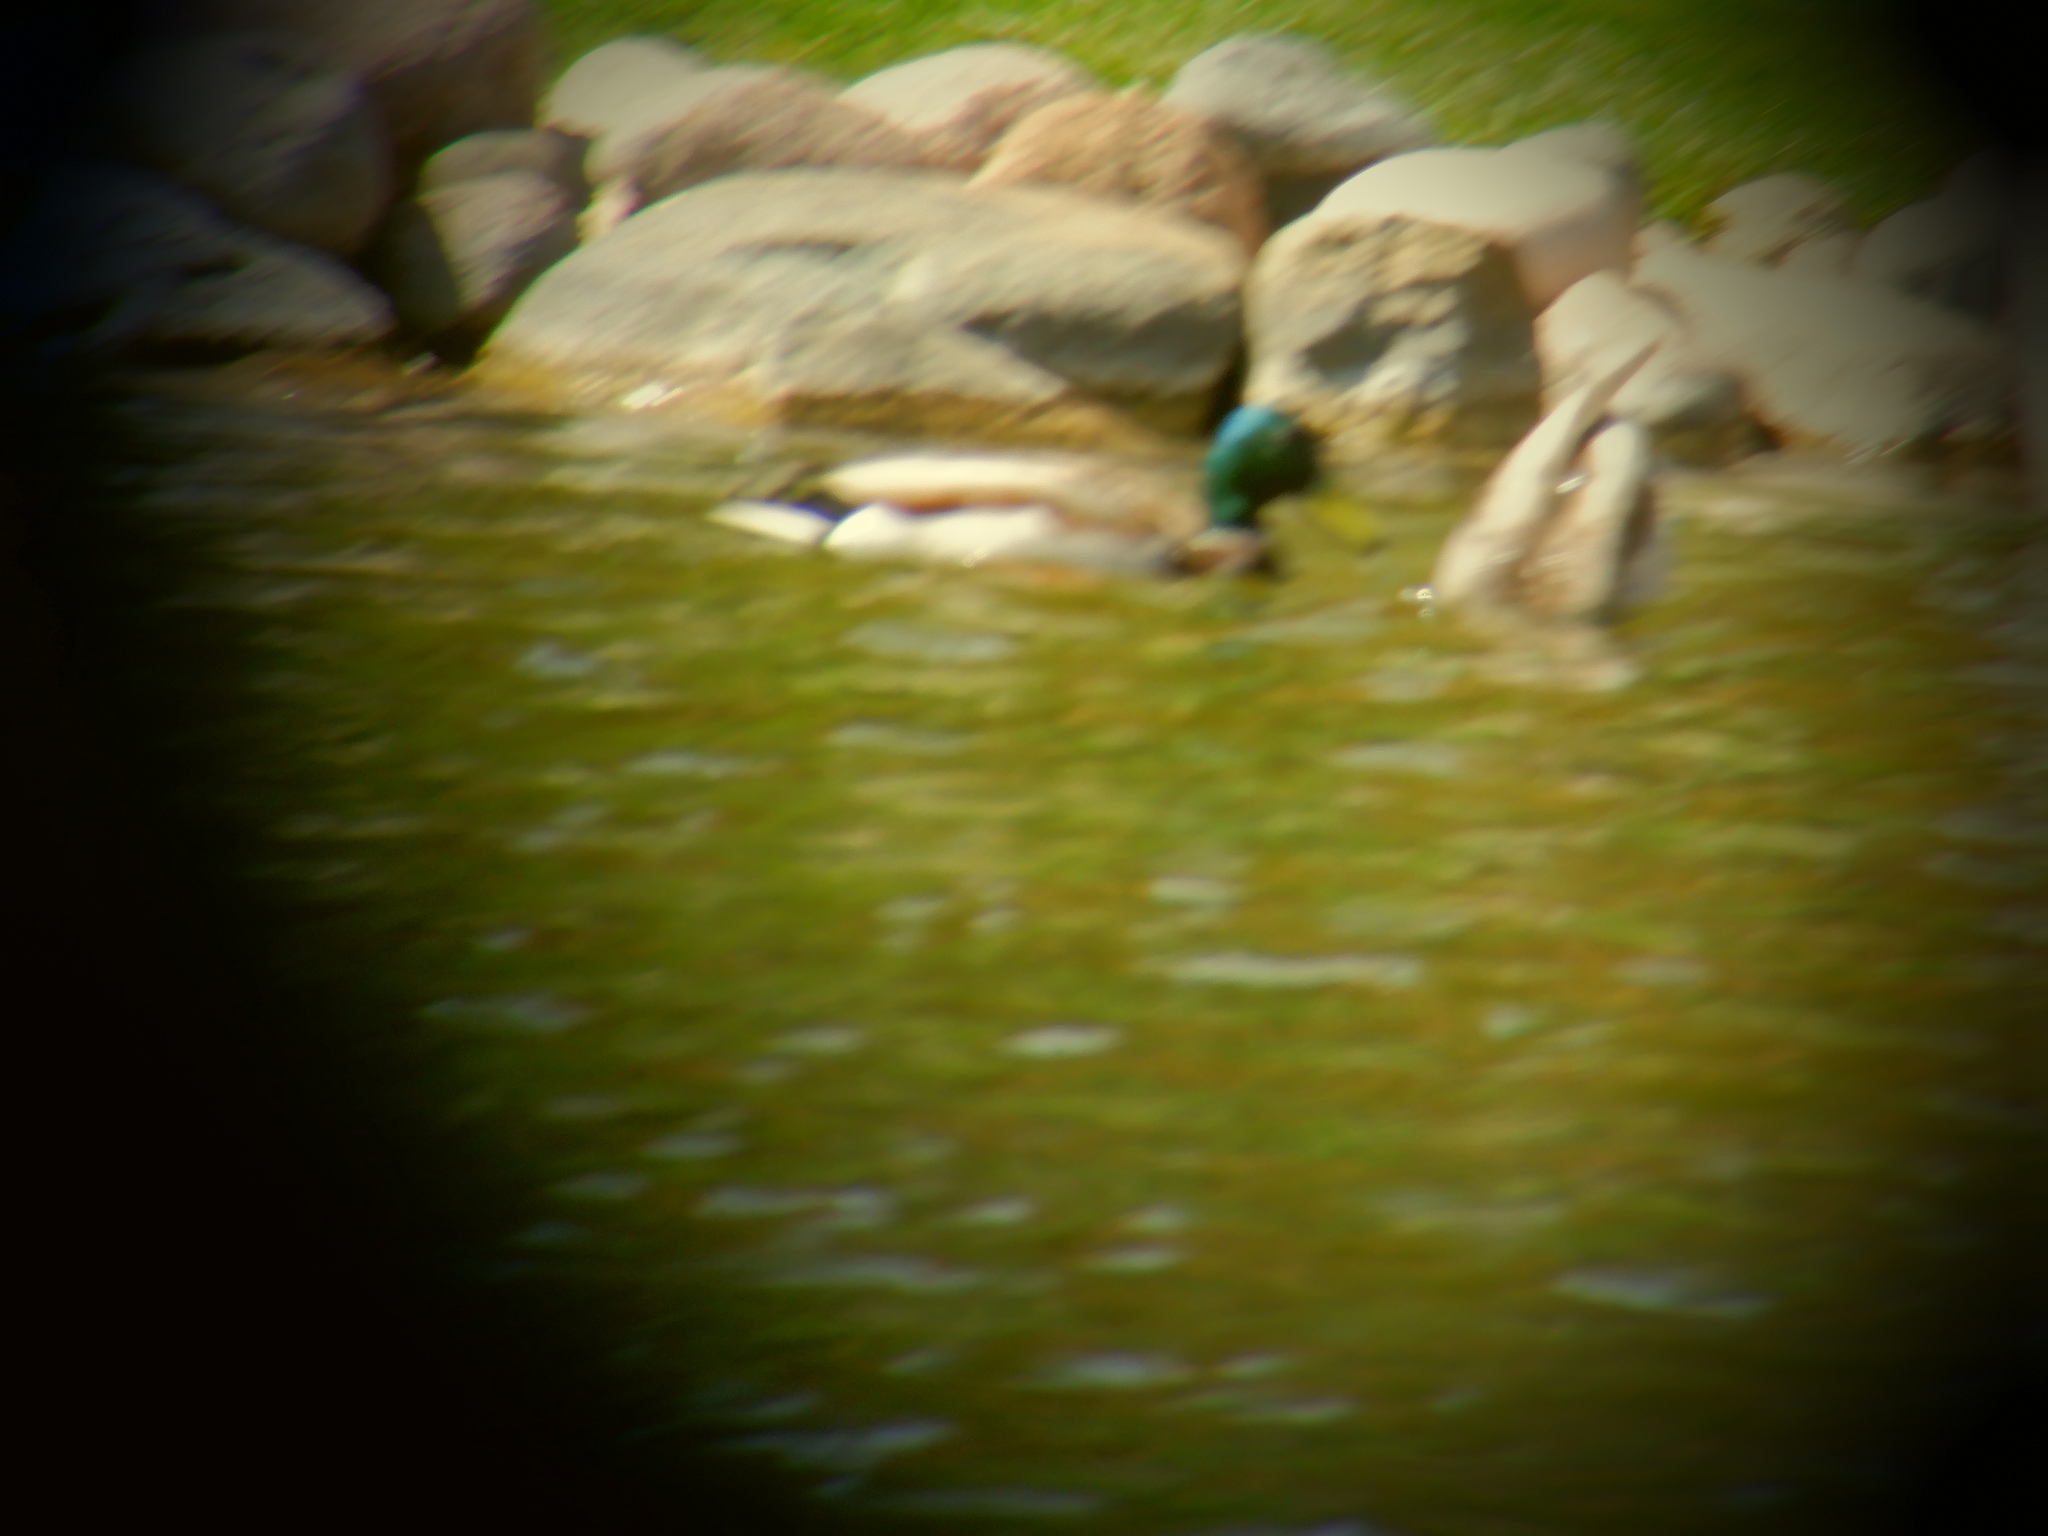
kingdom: Animalia
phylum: Chordata
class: Aves
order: Anseriformes
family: Anatidae
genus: Anas
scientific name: Anas platyrhynchos
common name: Mallard
